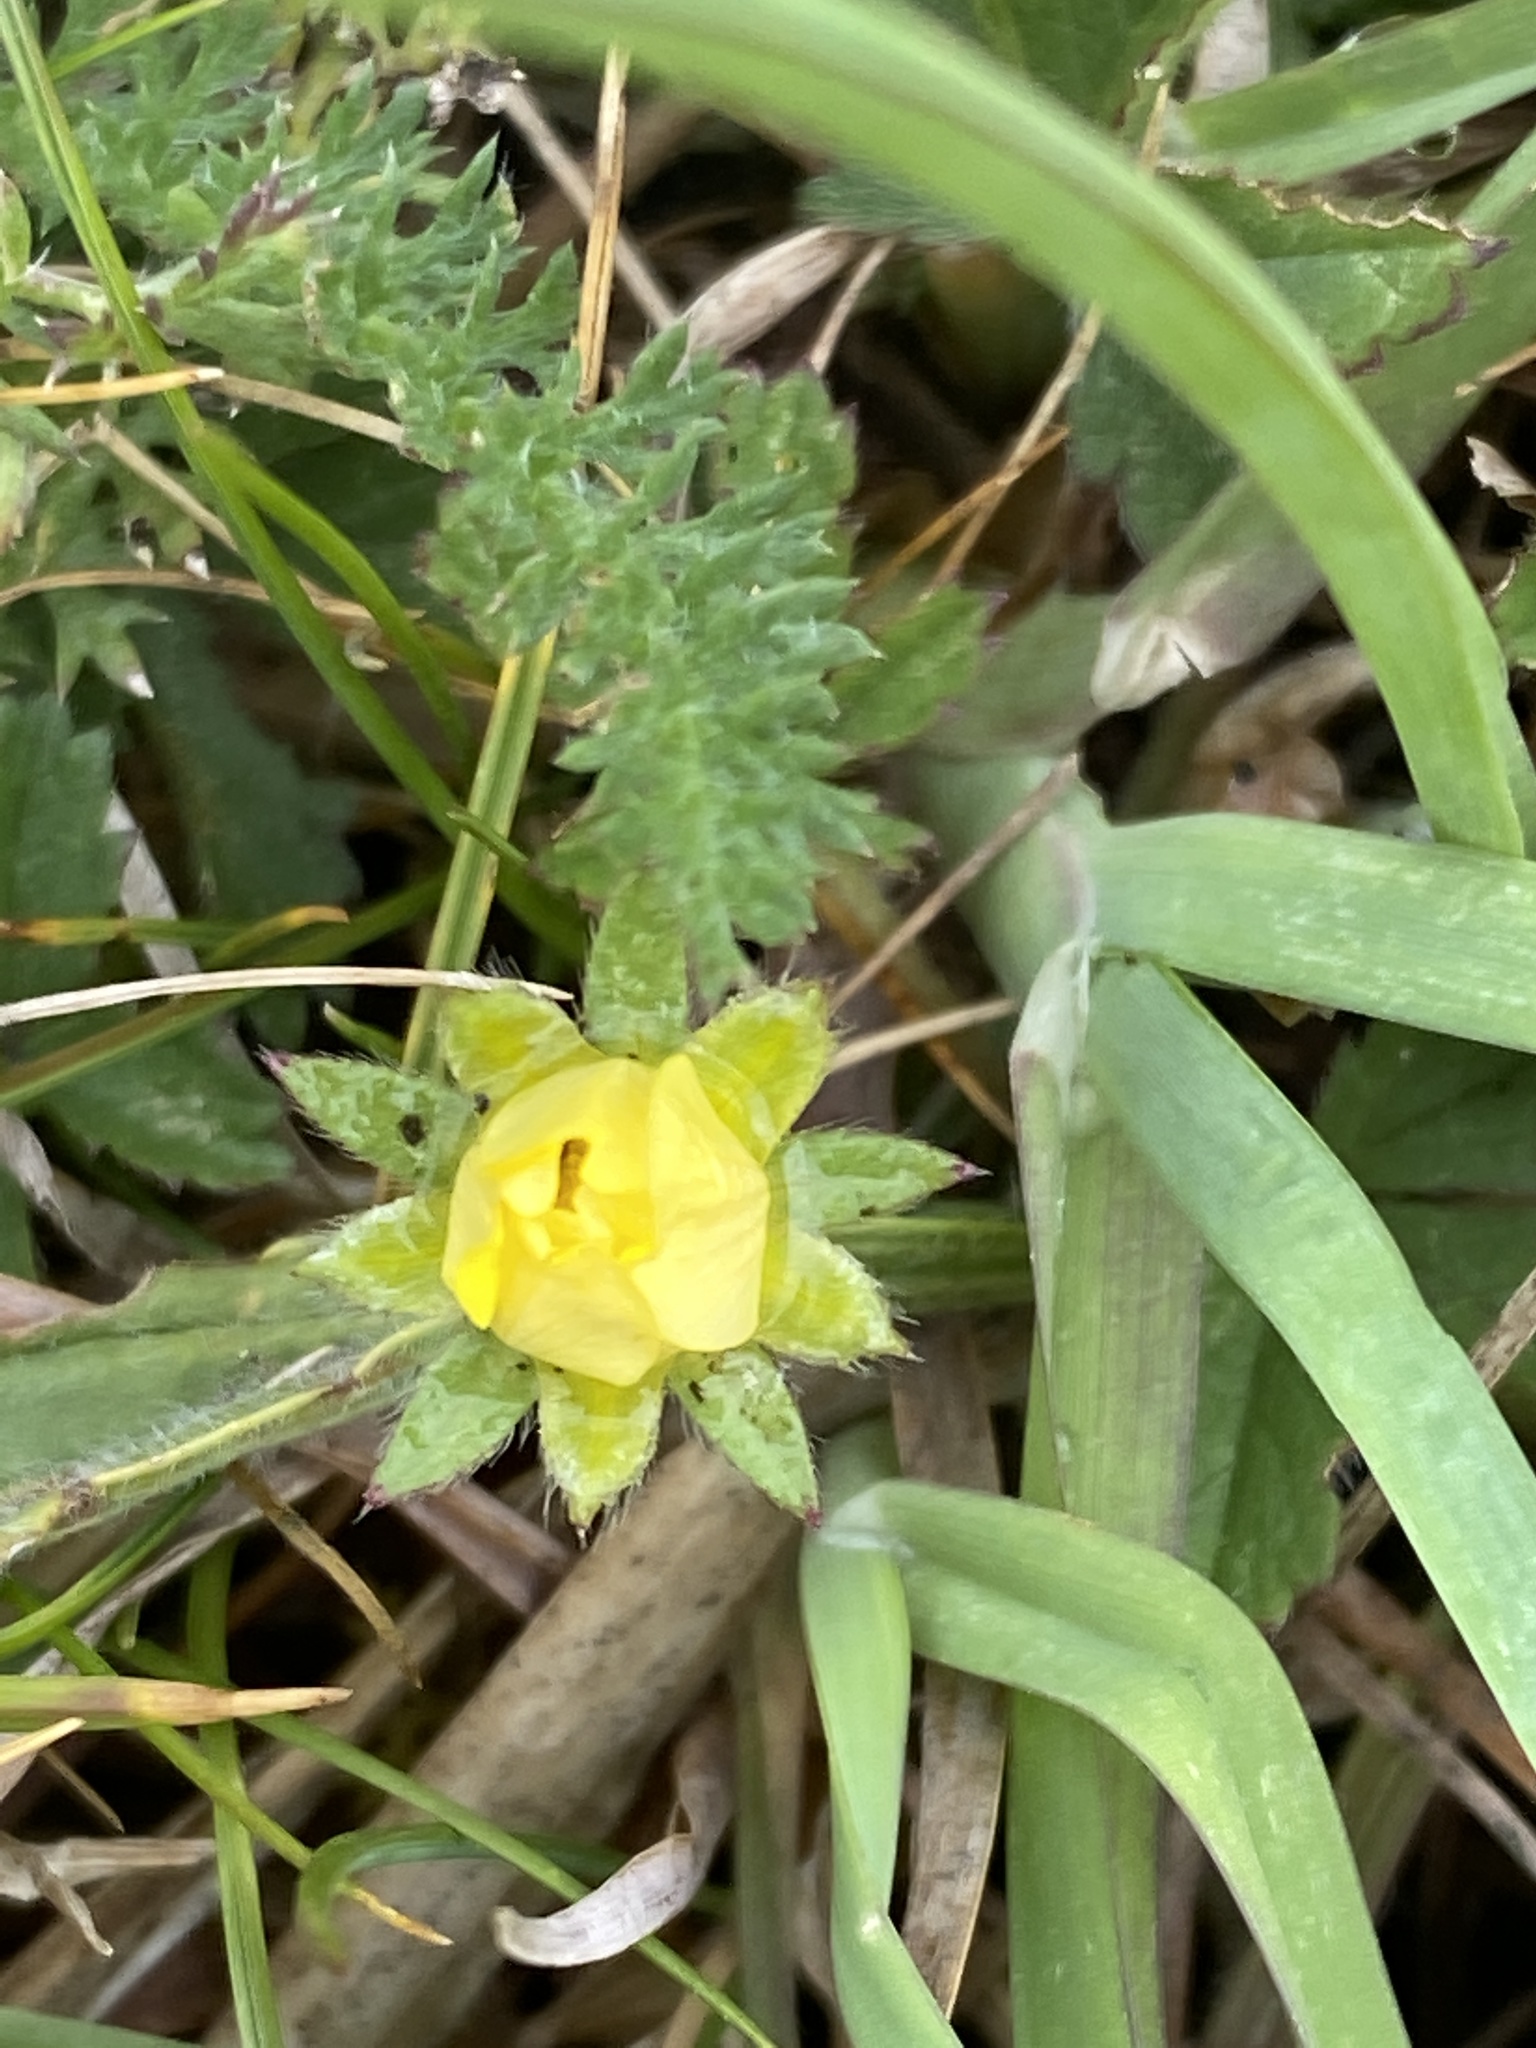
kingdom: Plantae
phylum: Tracheophyta
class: Magnoliopsida
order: Rosales
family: Rosaceae
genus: Potentilla
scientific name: Potentilla indica
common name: Yellow-flowered strawberry
